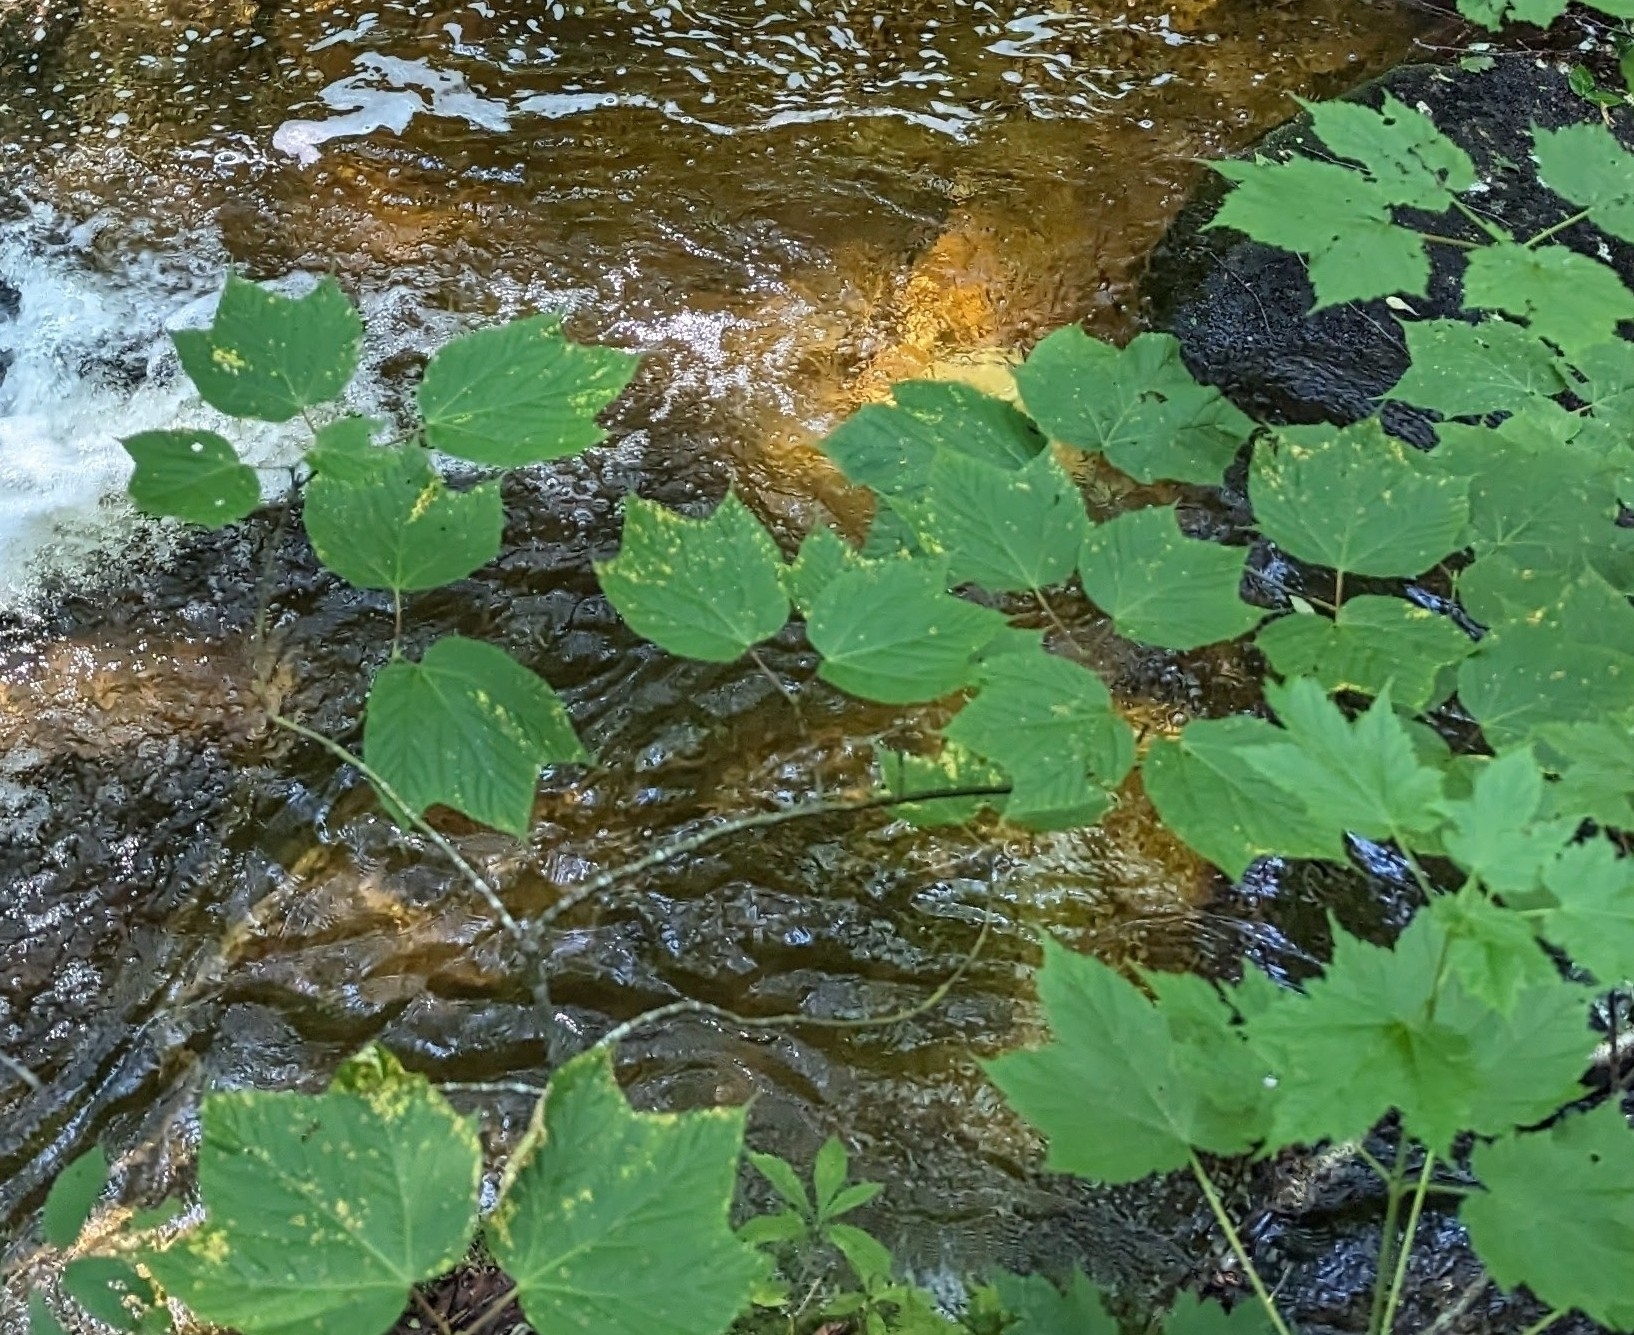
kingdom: Plantae
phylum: Tracheophyta
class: Magnoliopsida
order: Sapindales
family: Sapindaceae
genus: Acer
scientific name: Acer pensylvanicum
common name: Moosewood
